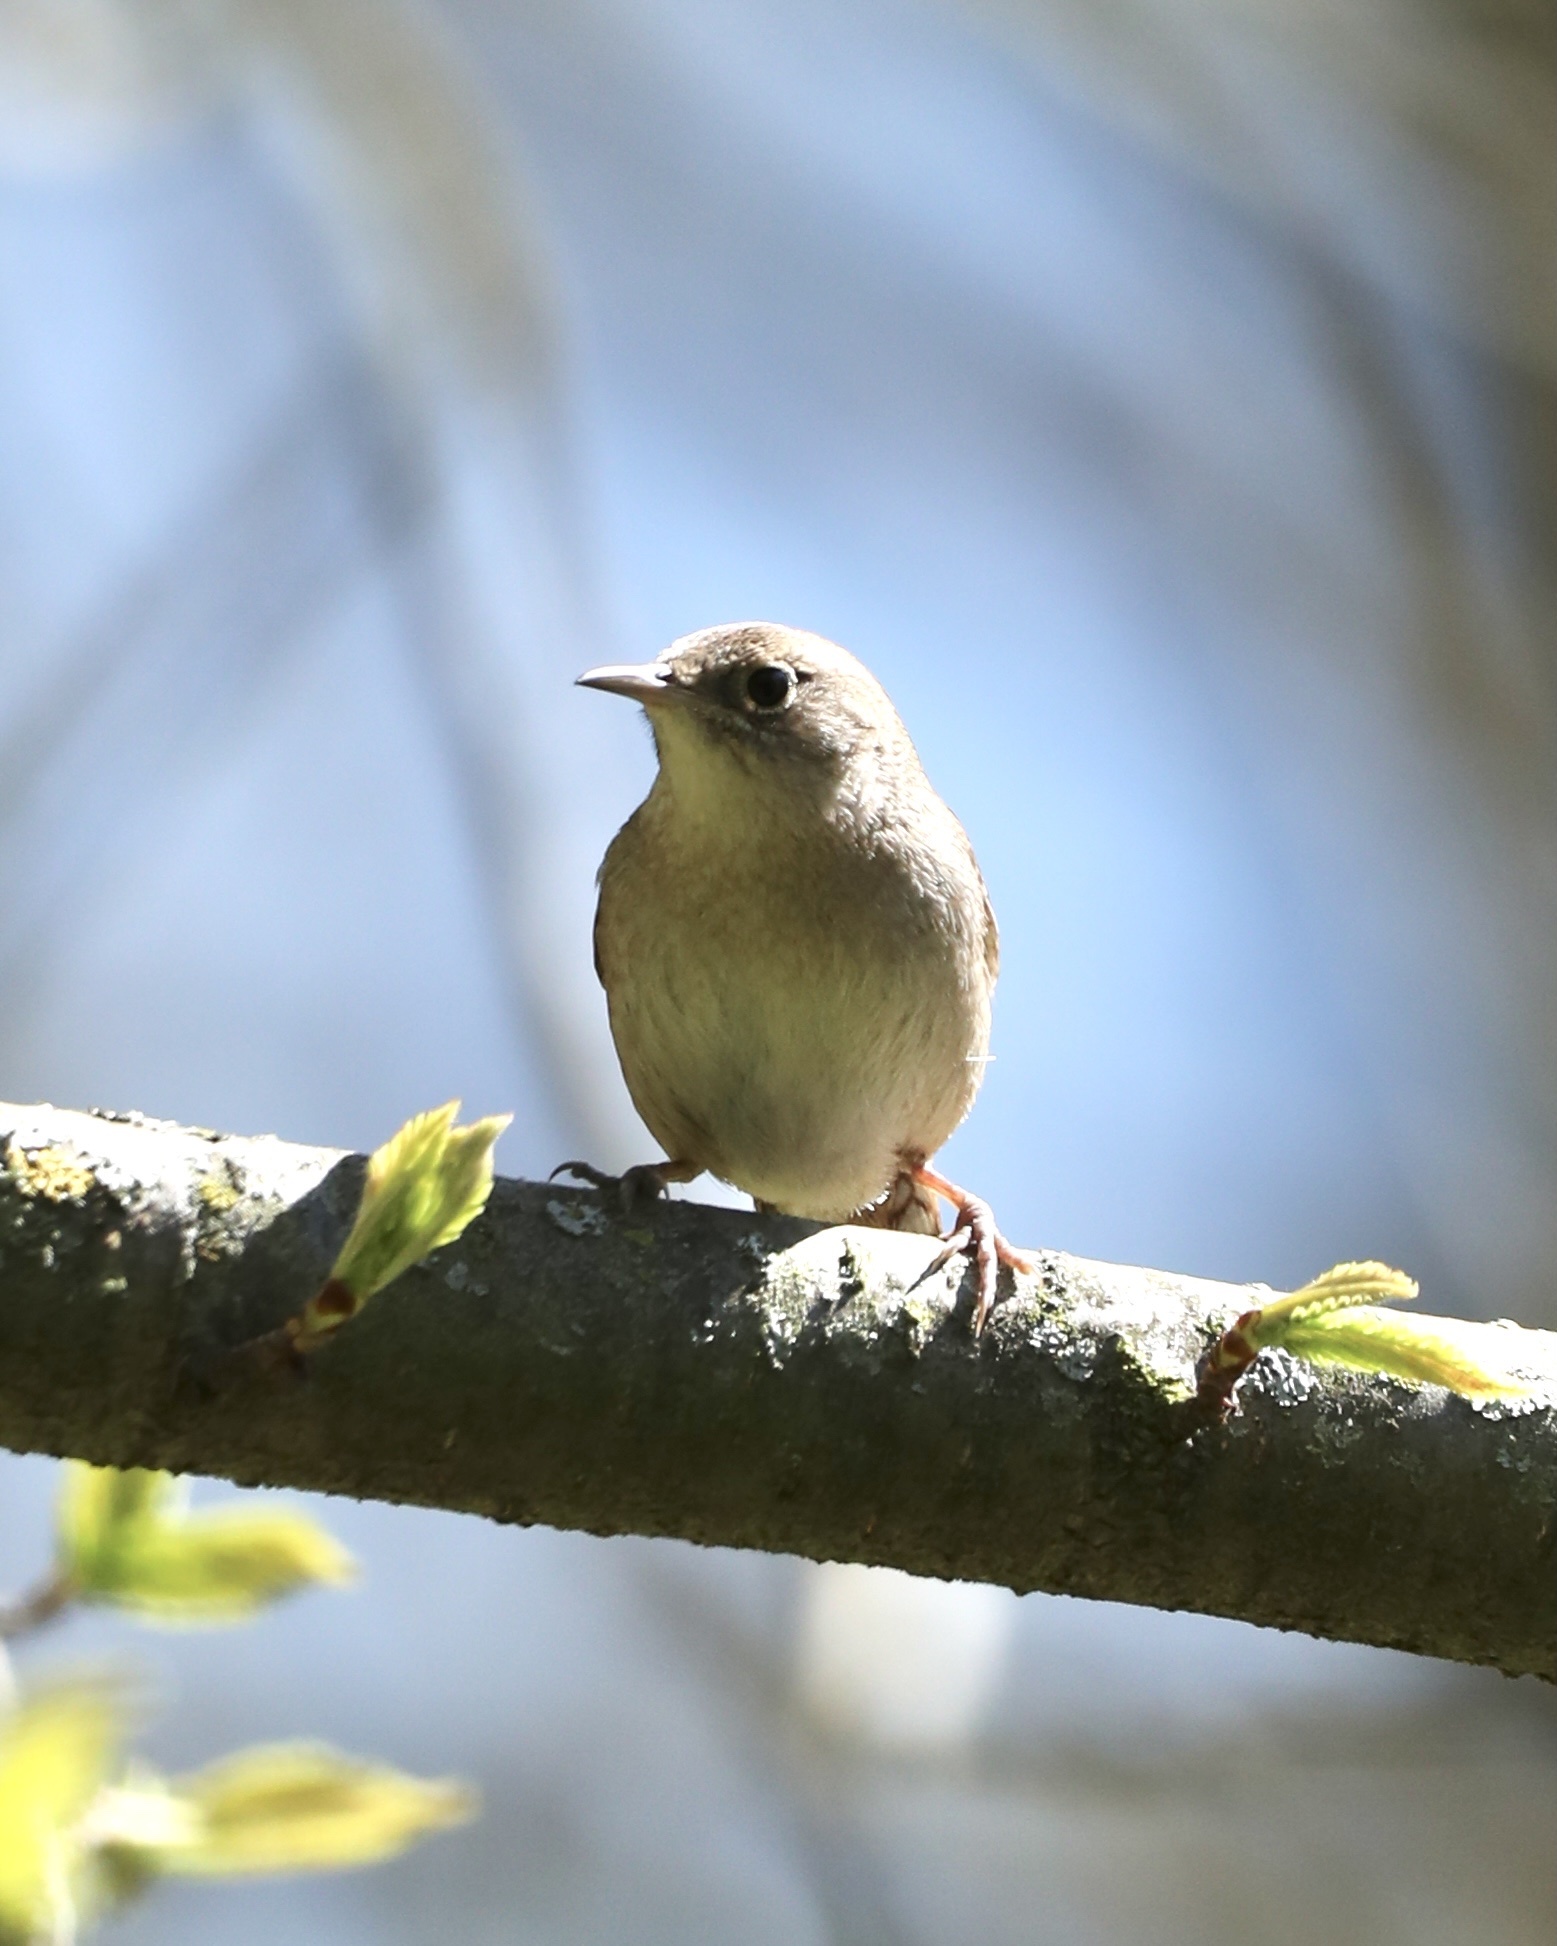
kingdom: Animalia
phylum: Chordata
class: Aves
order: Passeriformes
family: Troglodytidae
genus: Troglodytes
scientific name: Troglodytes aedon
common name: House wren
